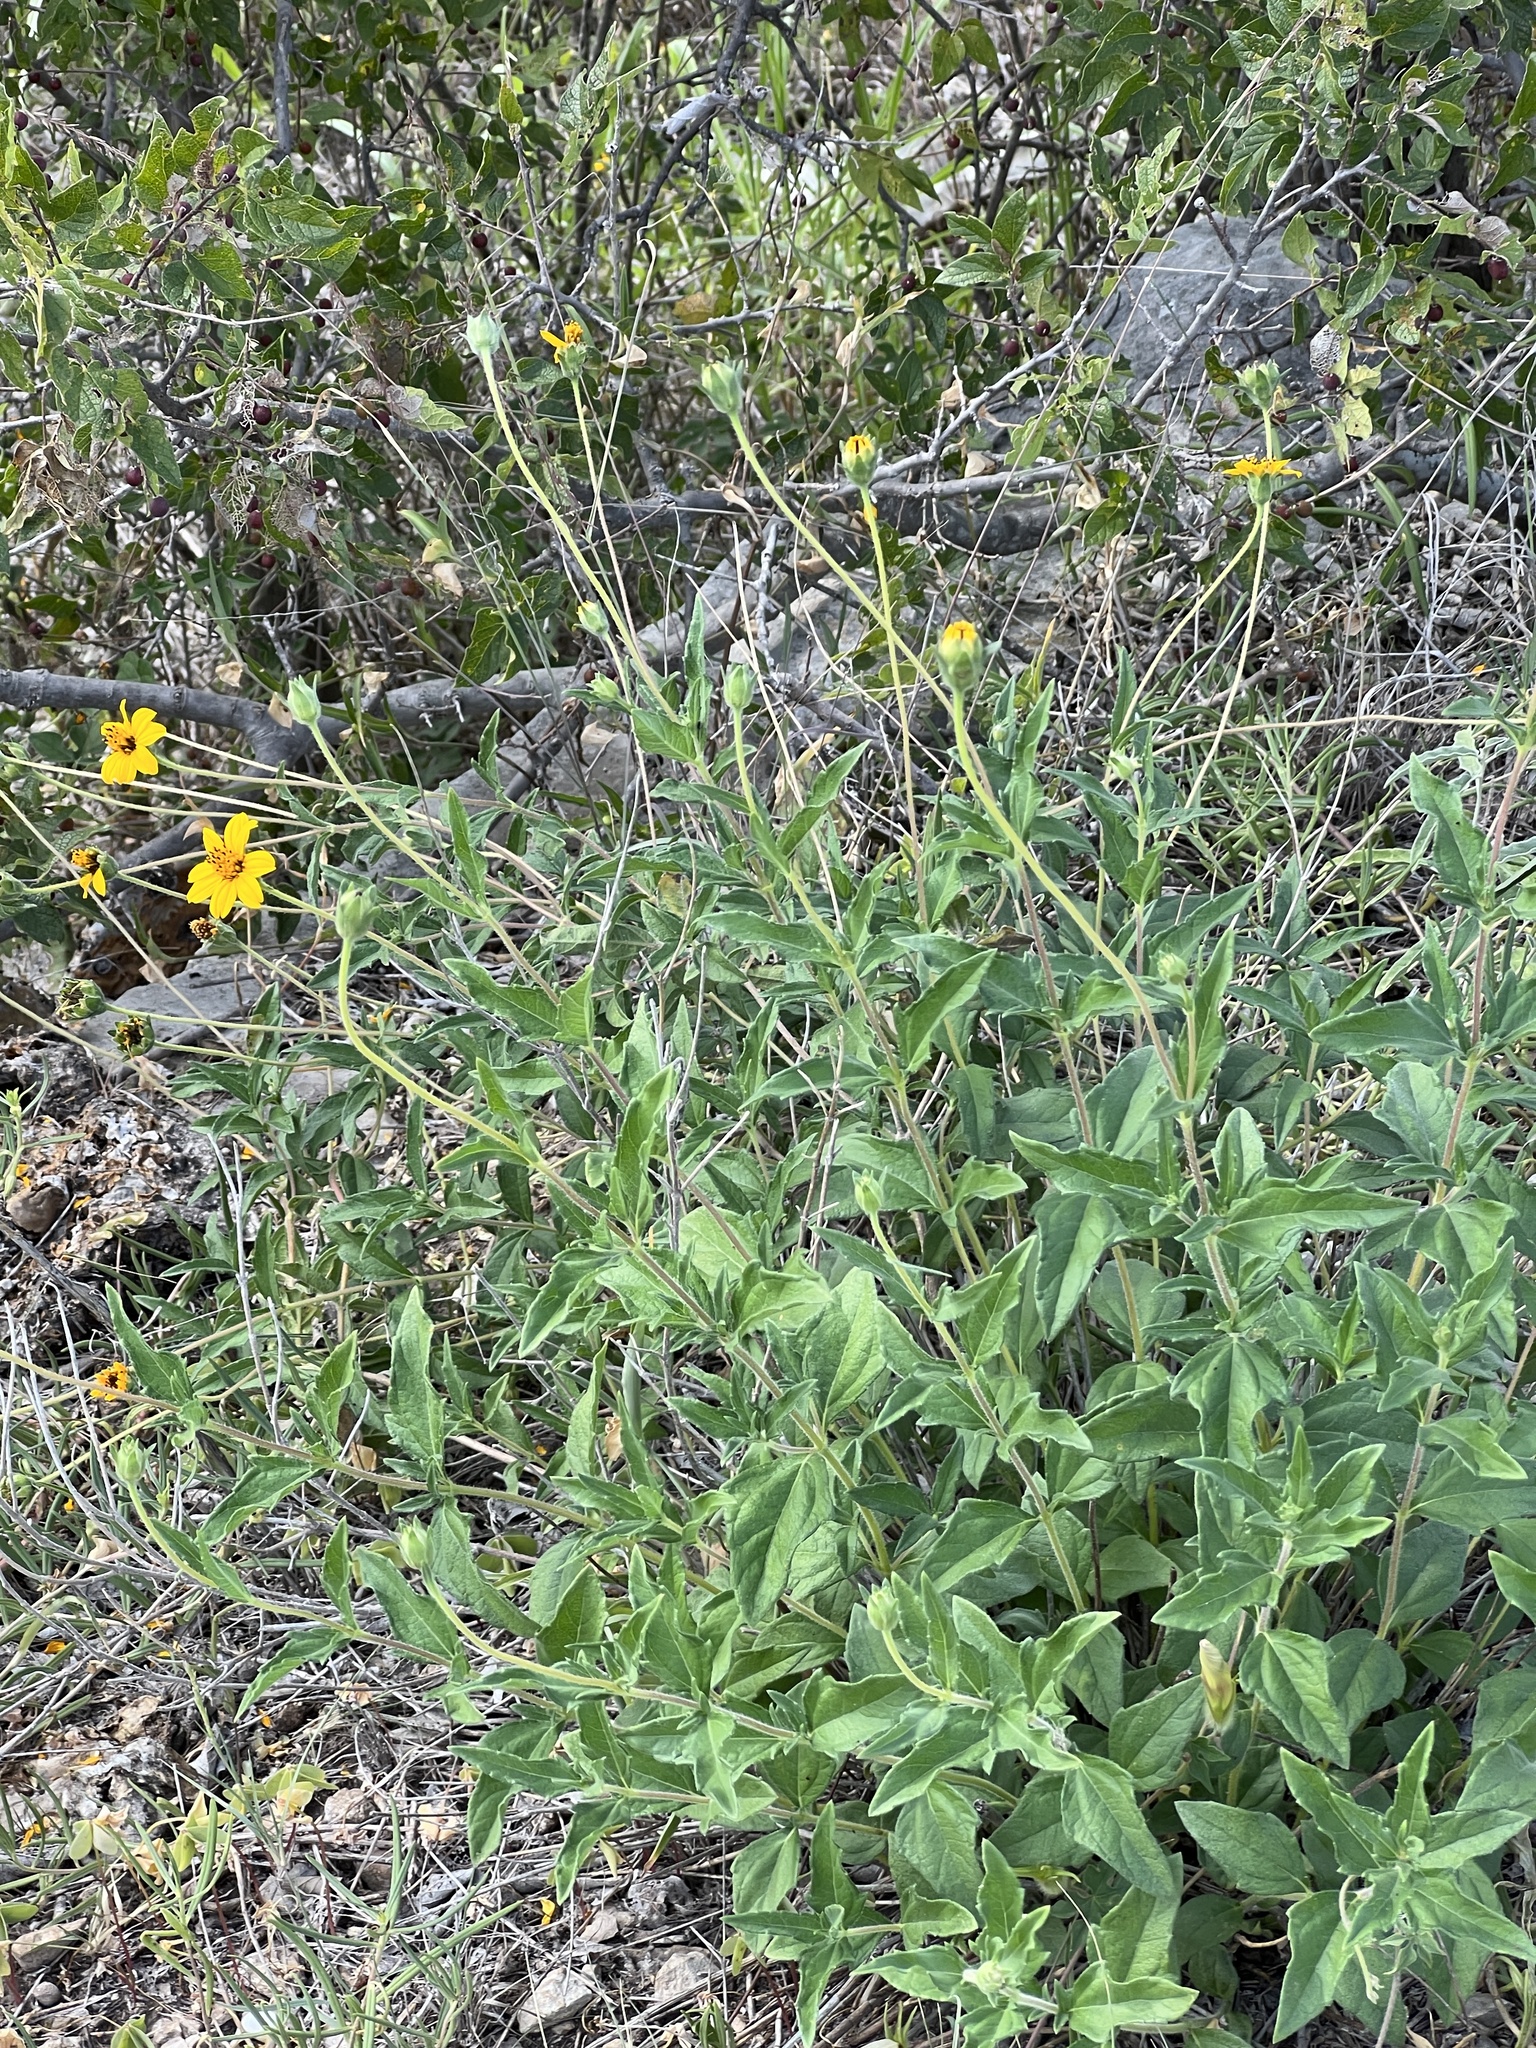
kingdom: Plantae
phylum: Tracheophyta
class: Magnoliopsida
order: Asterales
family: Asteraceae
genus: Wedelia
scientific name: Wedelia acapulcensis
